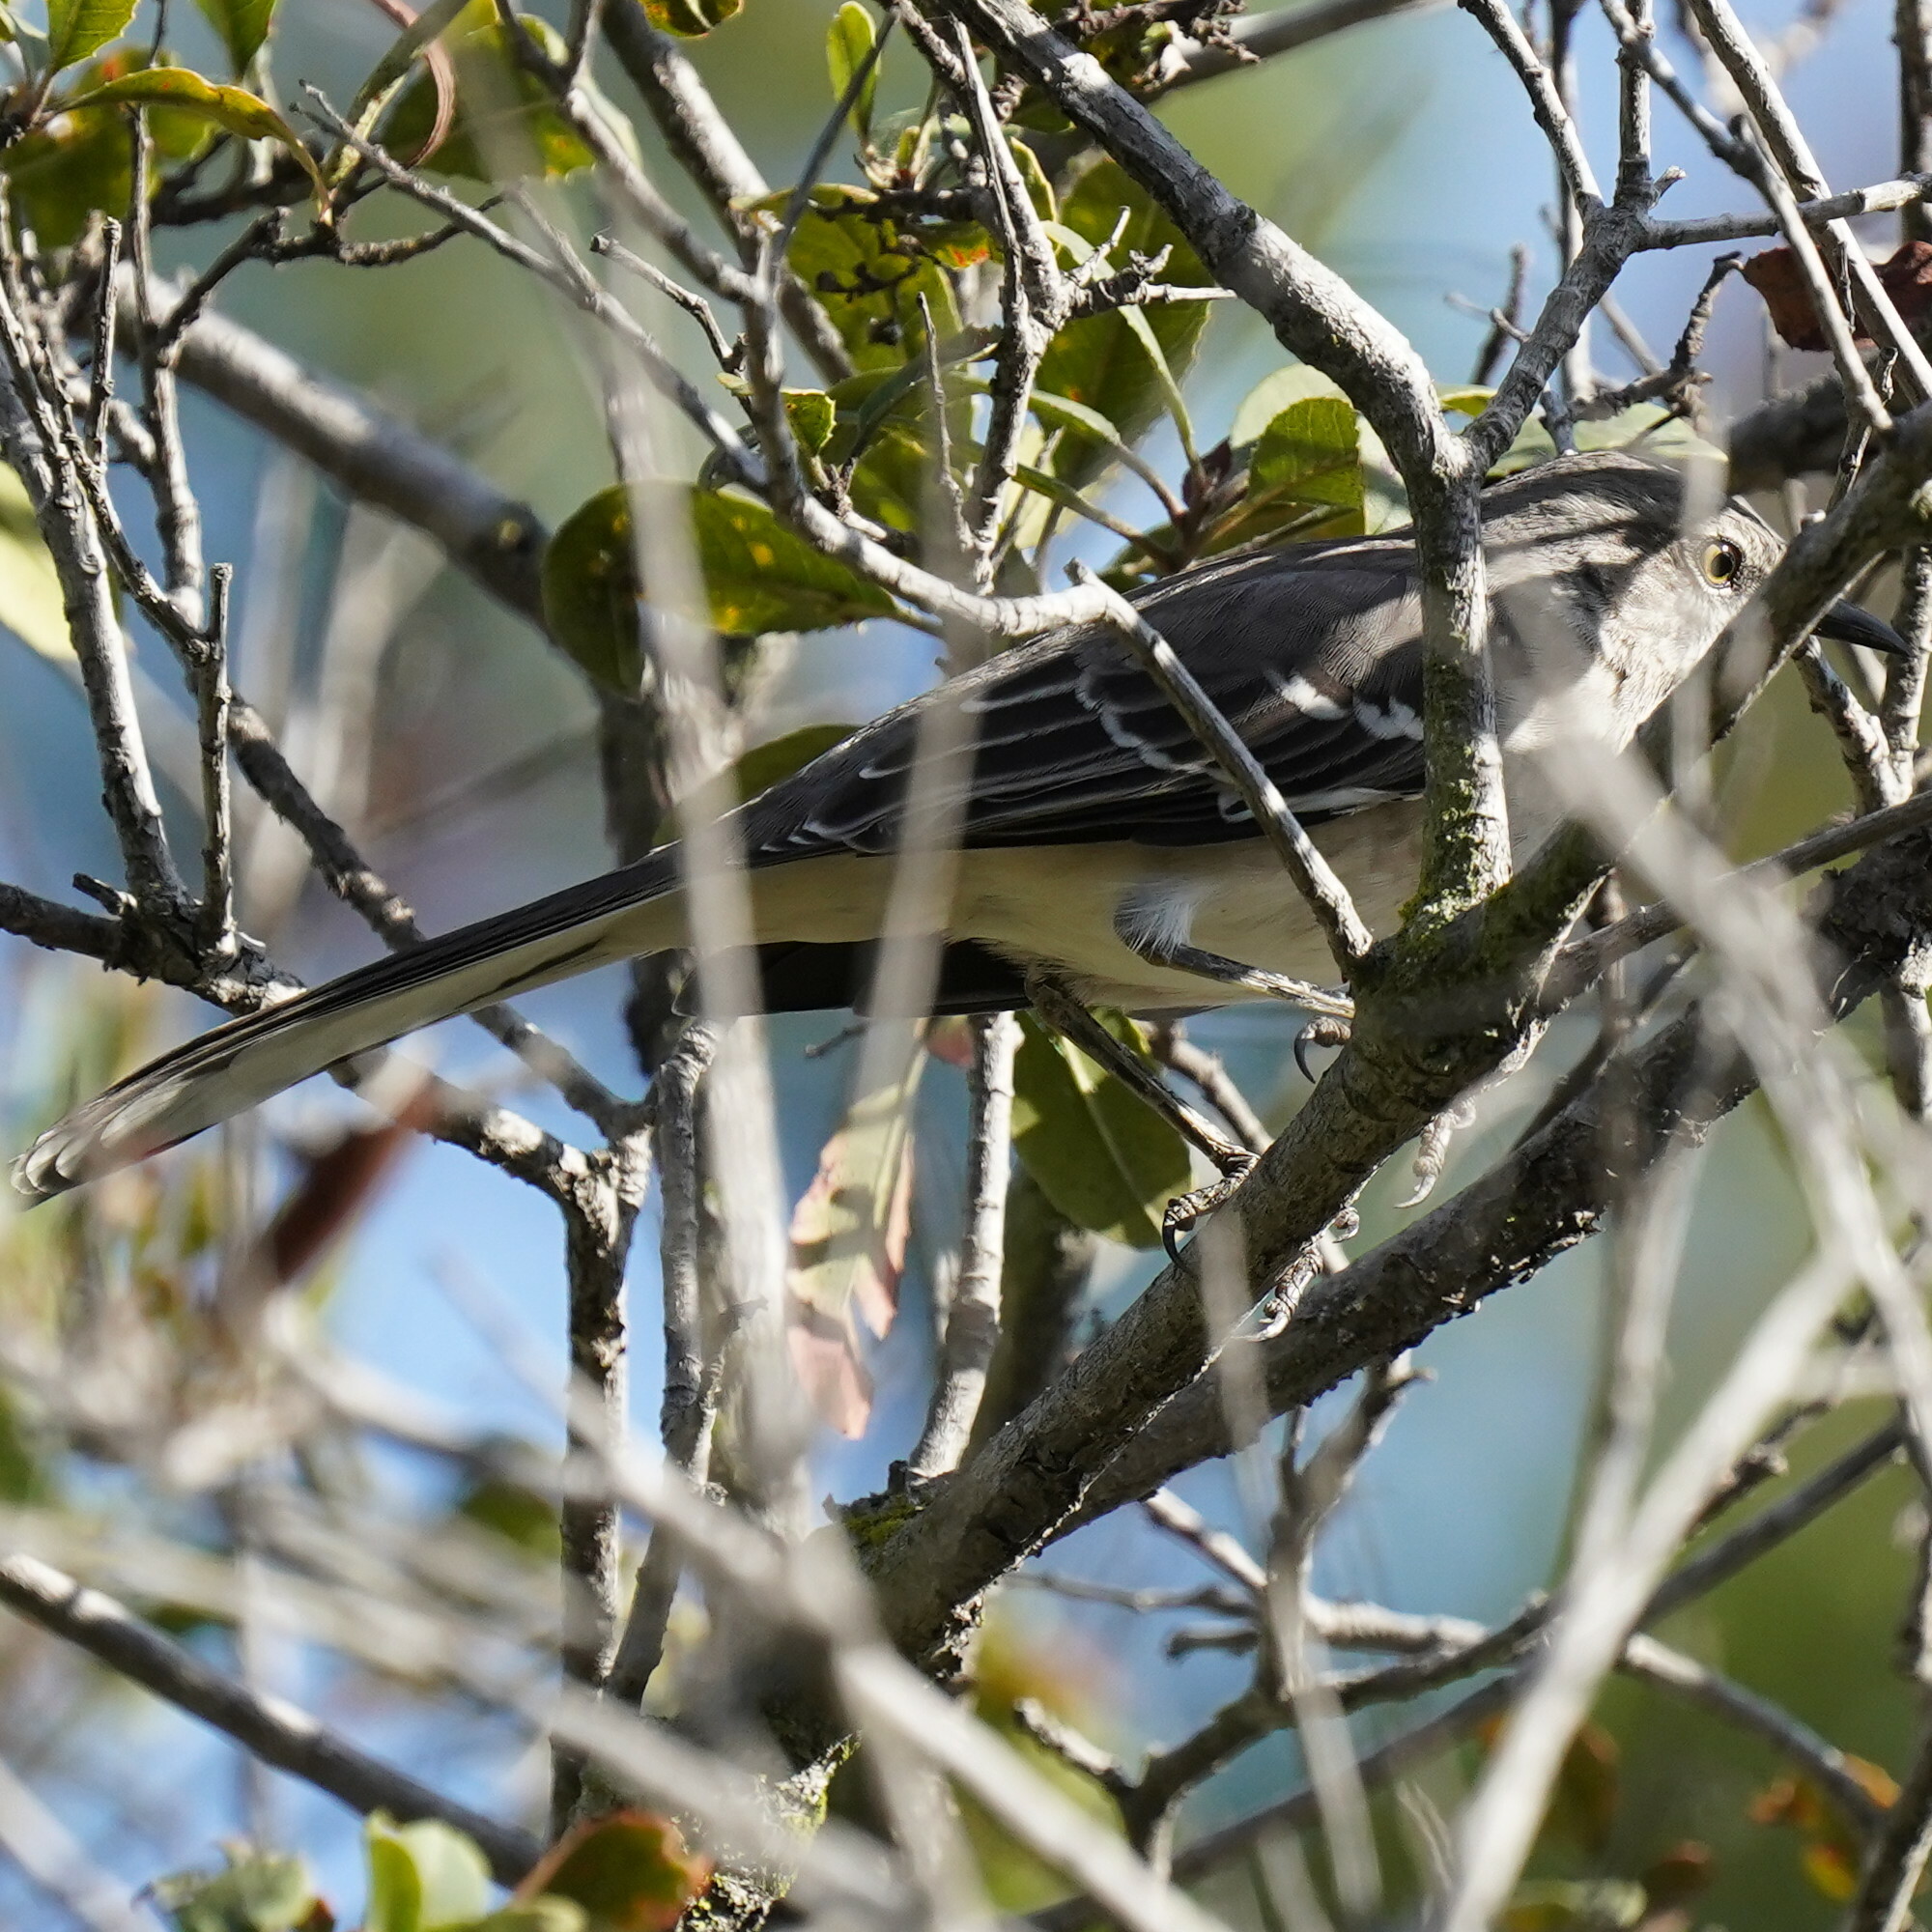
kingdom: Animalia
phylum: Chordata
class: Aves
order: Passeriformes
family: Mimidae
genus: Mimus
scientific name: Mimus polyglottos
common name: Northern mockingbird
